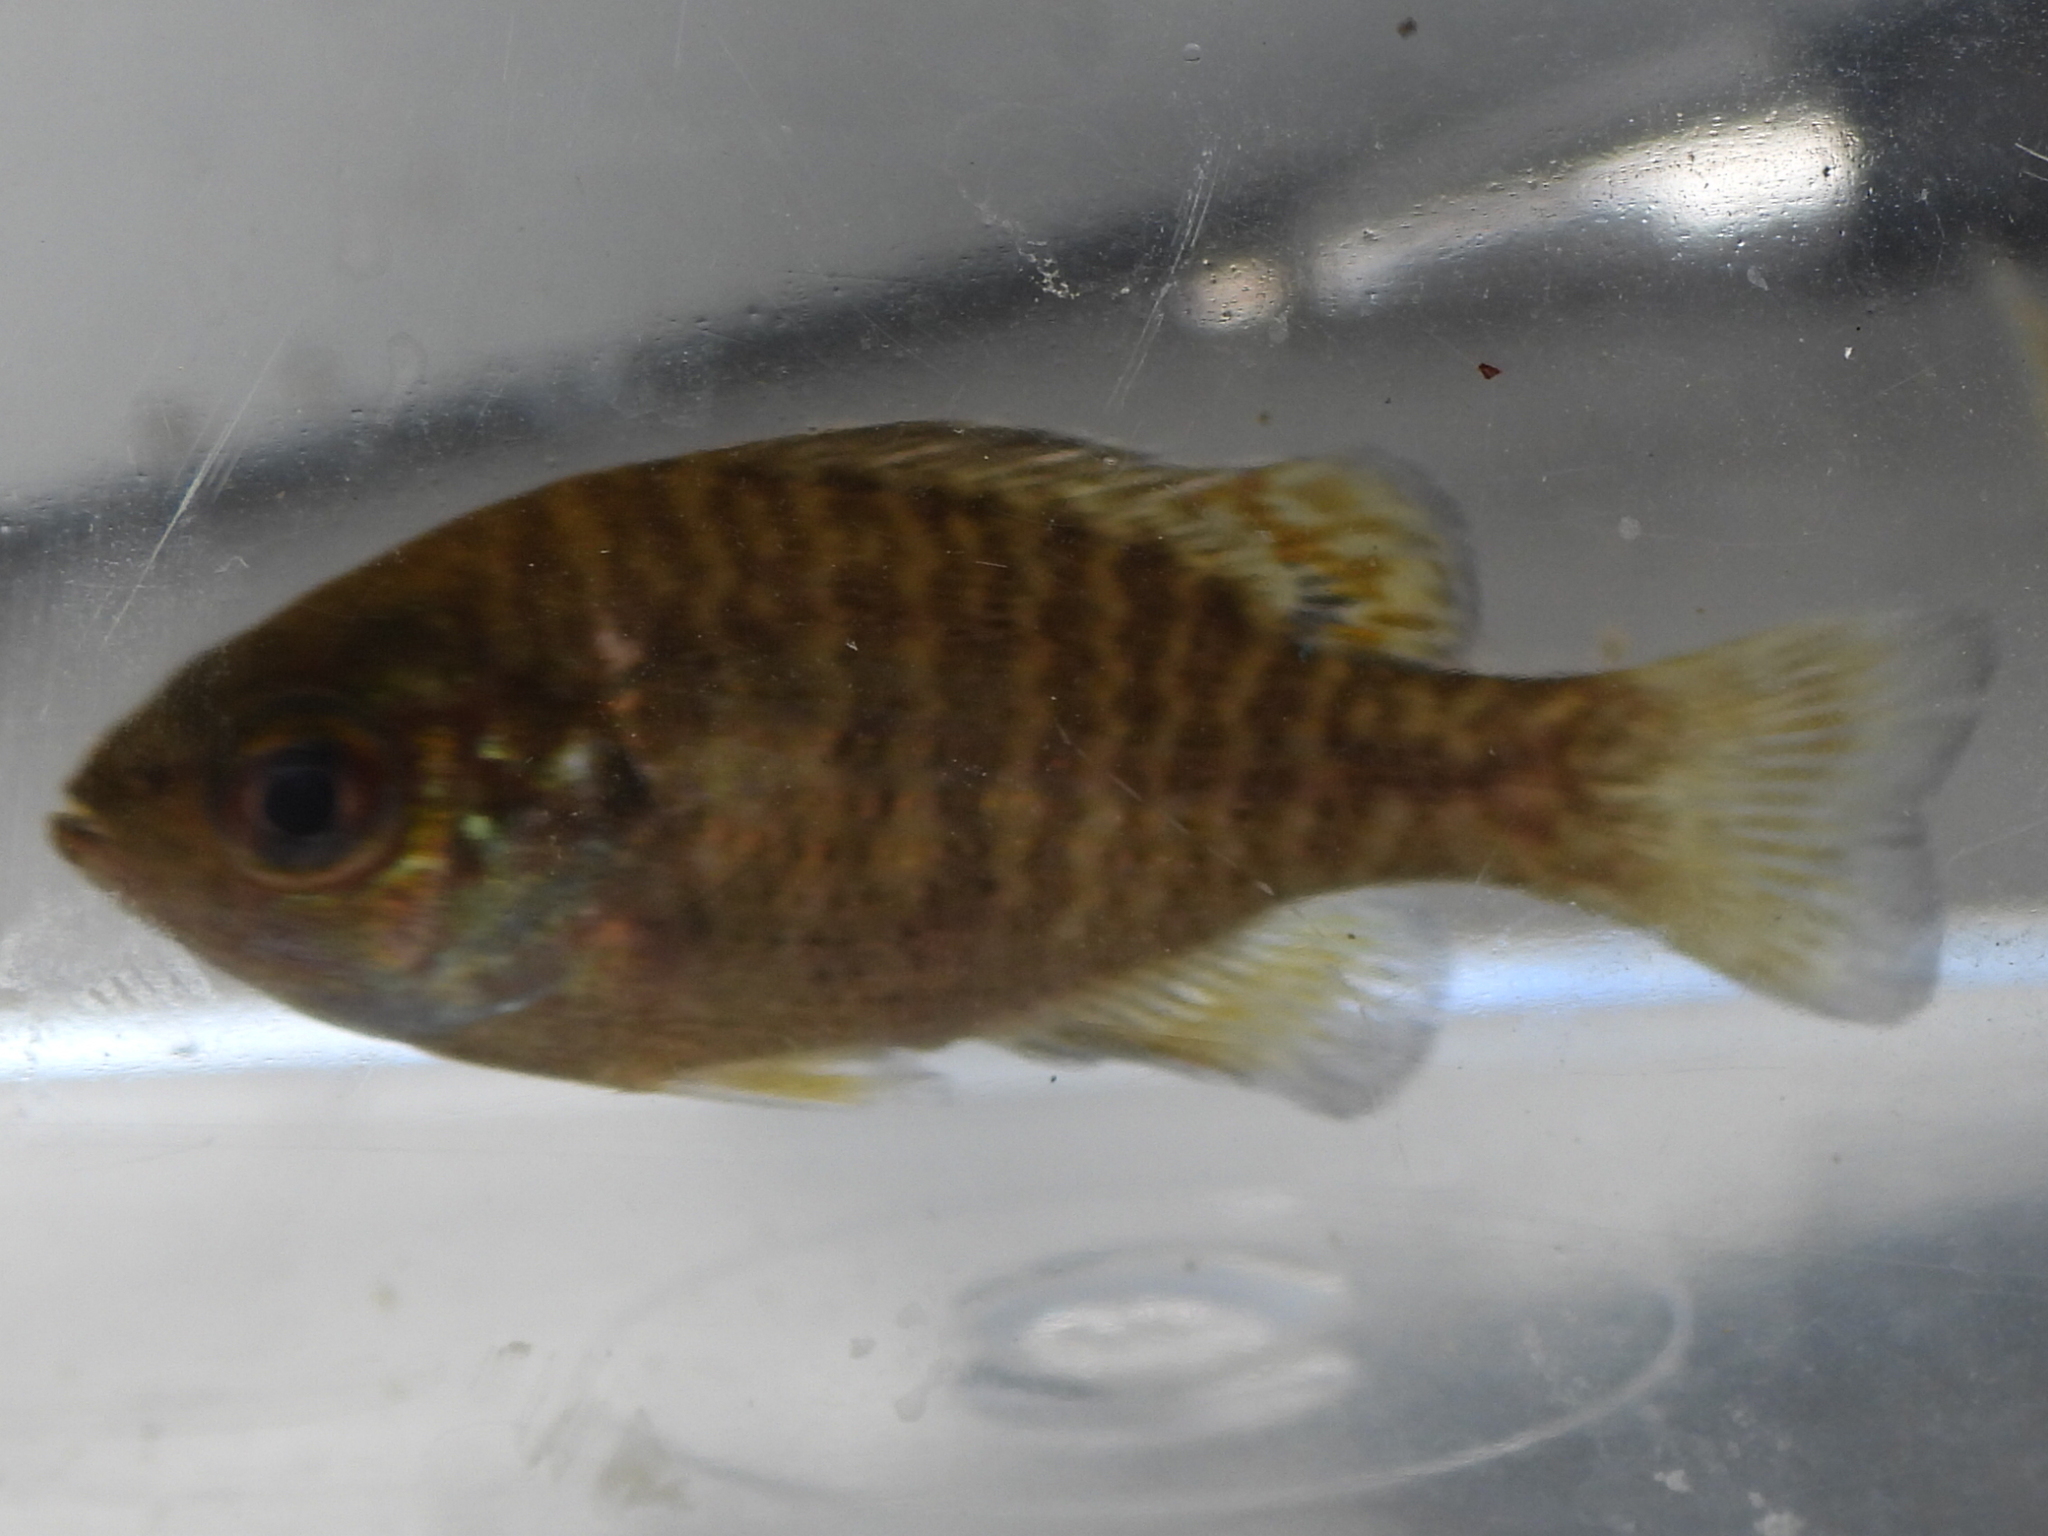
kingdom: Animalia
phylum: Chordata
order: Perciformes
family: Centrarchidae
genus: Lepomis
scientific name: Lepomis symmetricus
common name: Bantam sunfish
